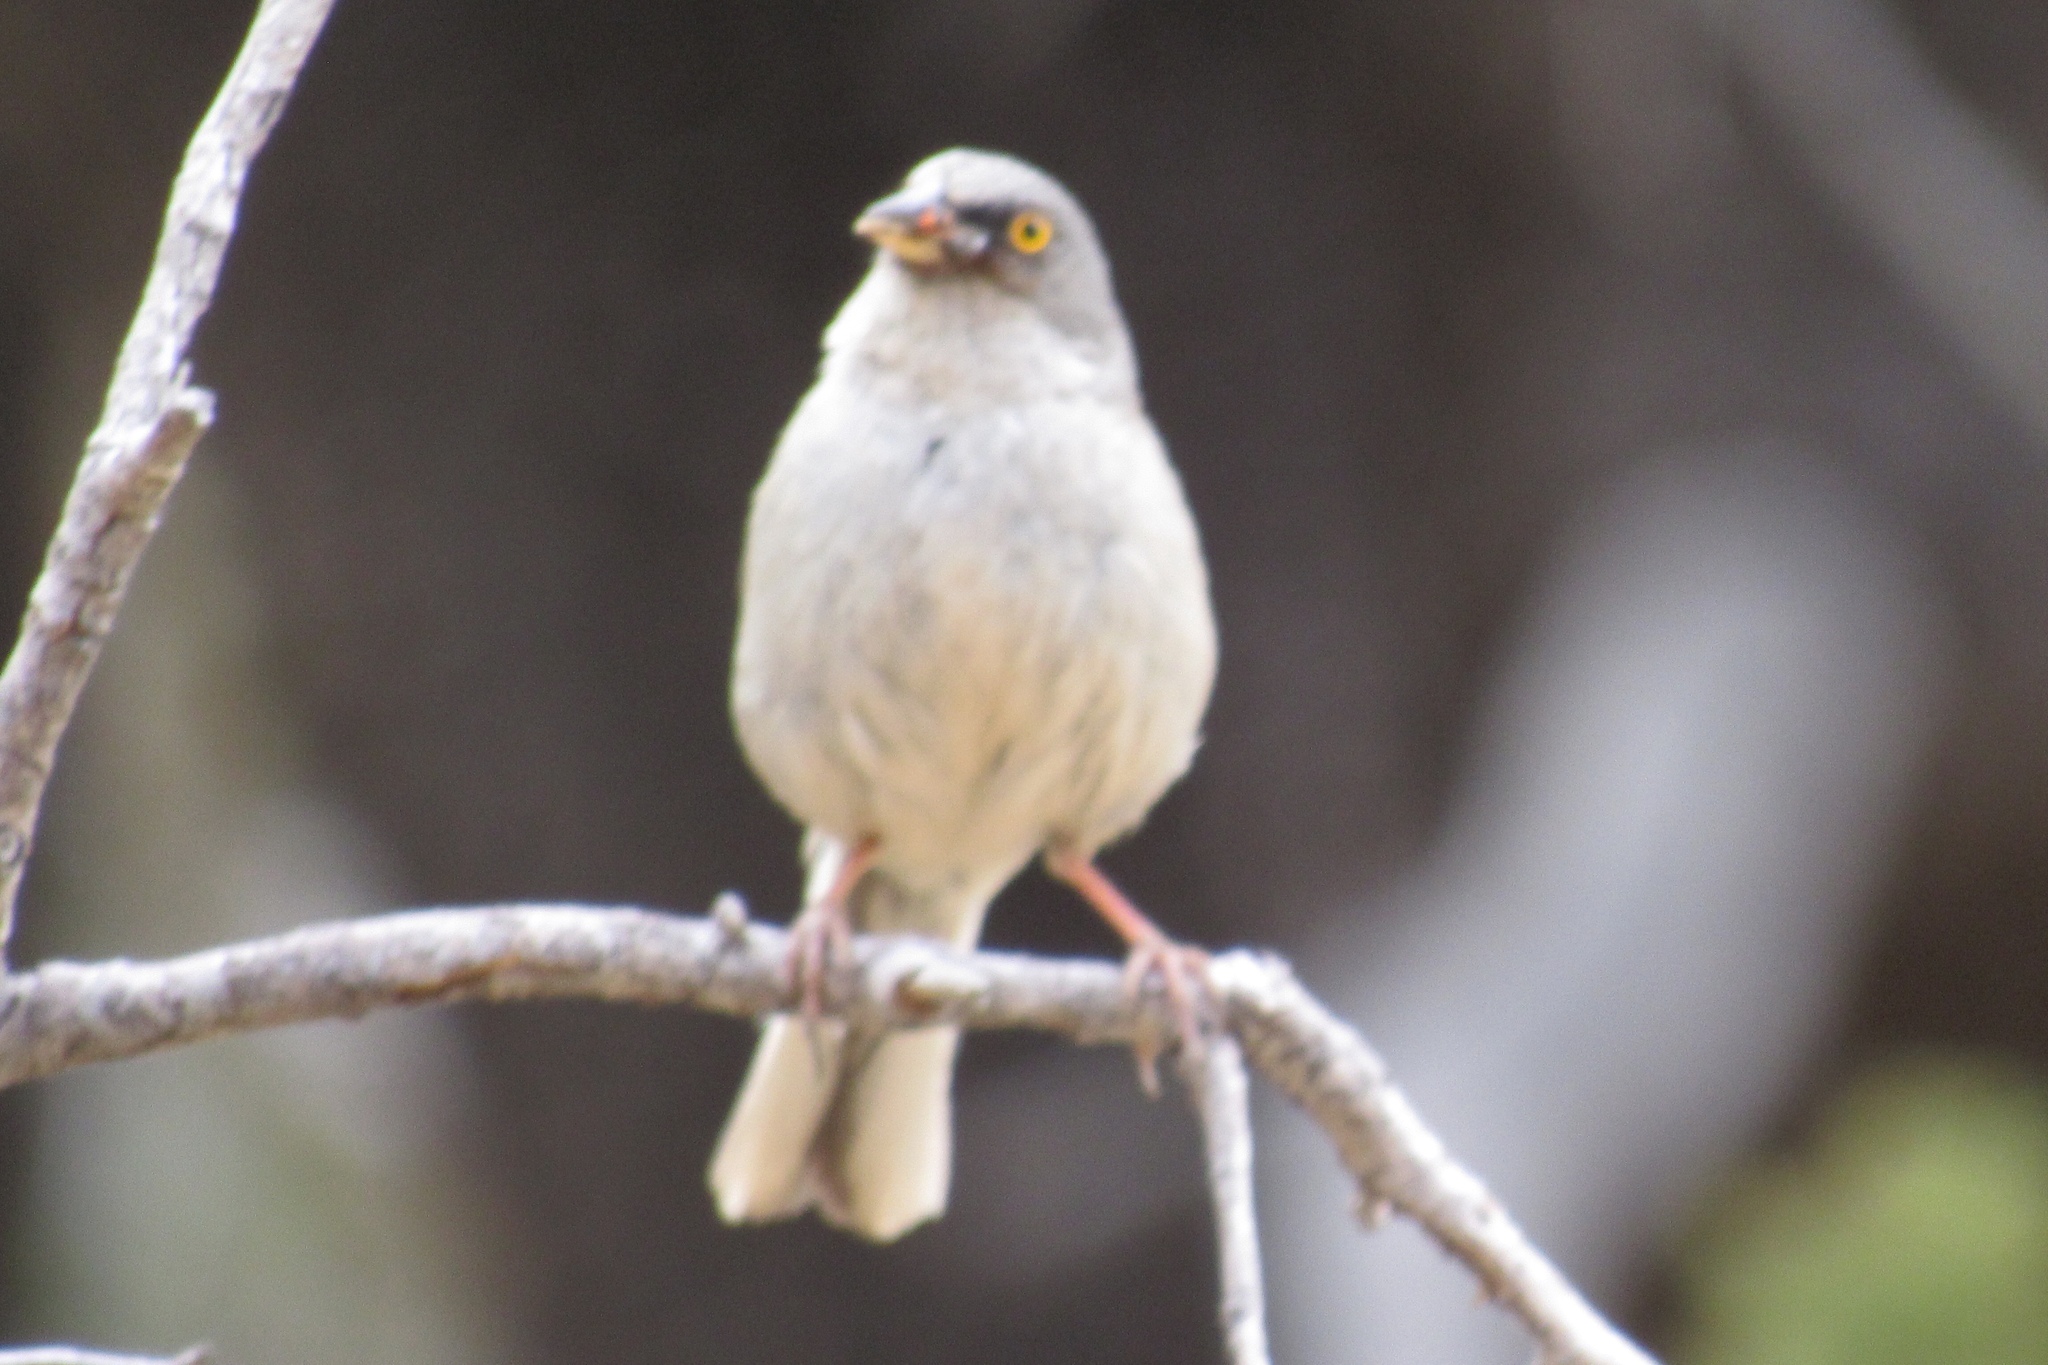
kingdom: Animalia
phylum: Chordata
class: Aves
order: Passeriformes
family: Passerellidae
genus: Junco
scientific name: Junco phaeonotus
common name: Yellow-eyed junco
